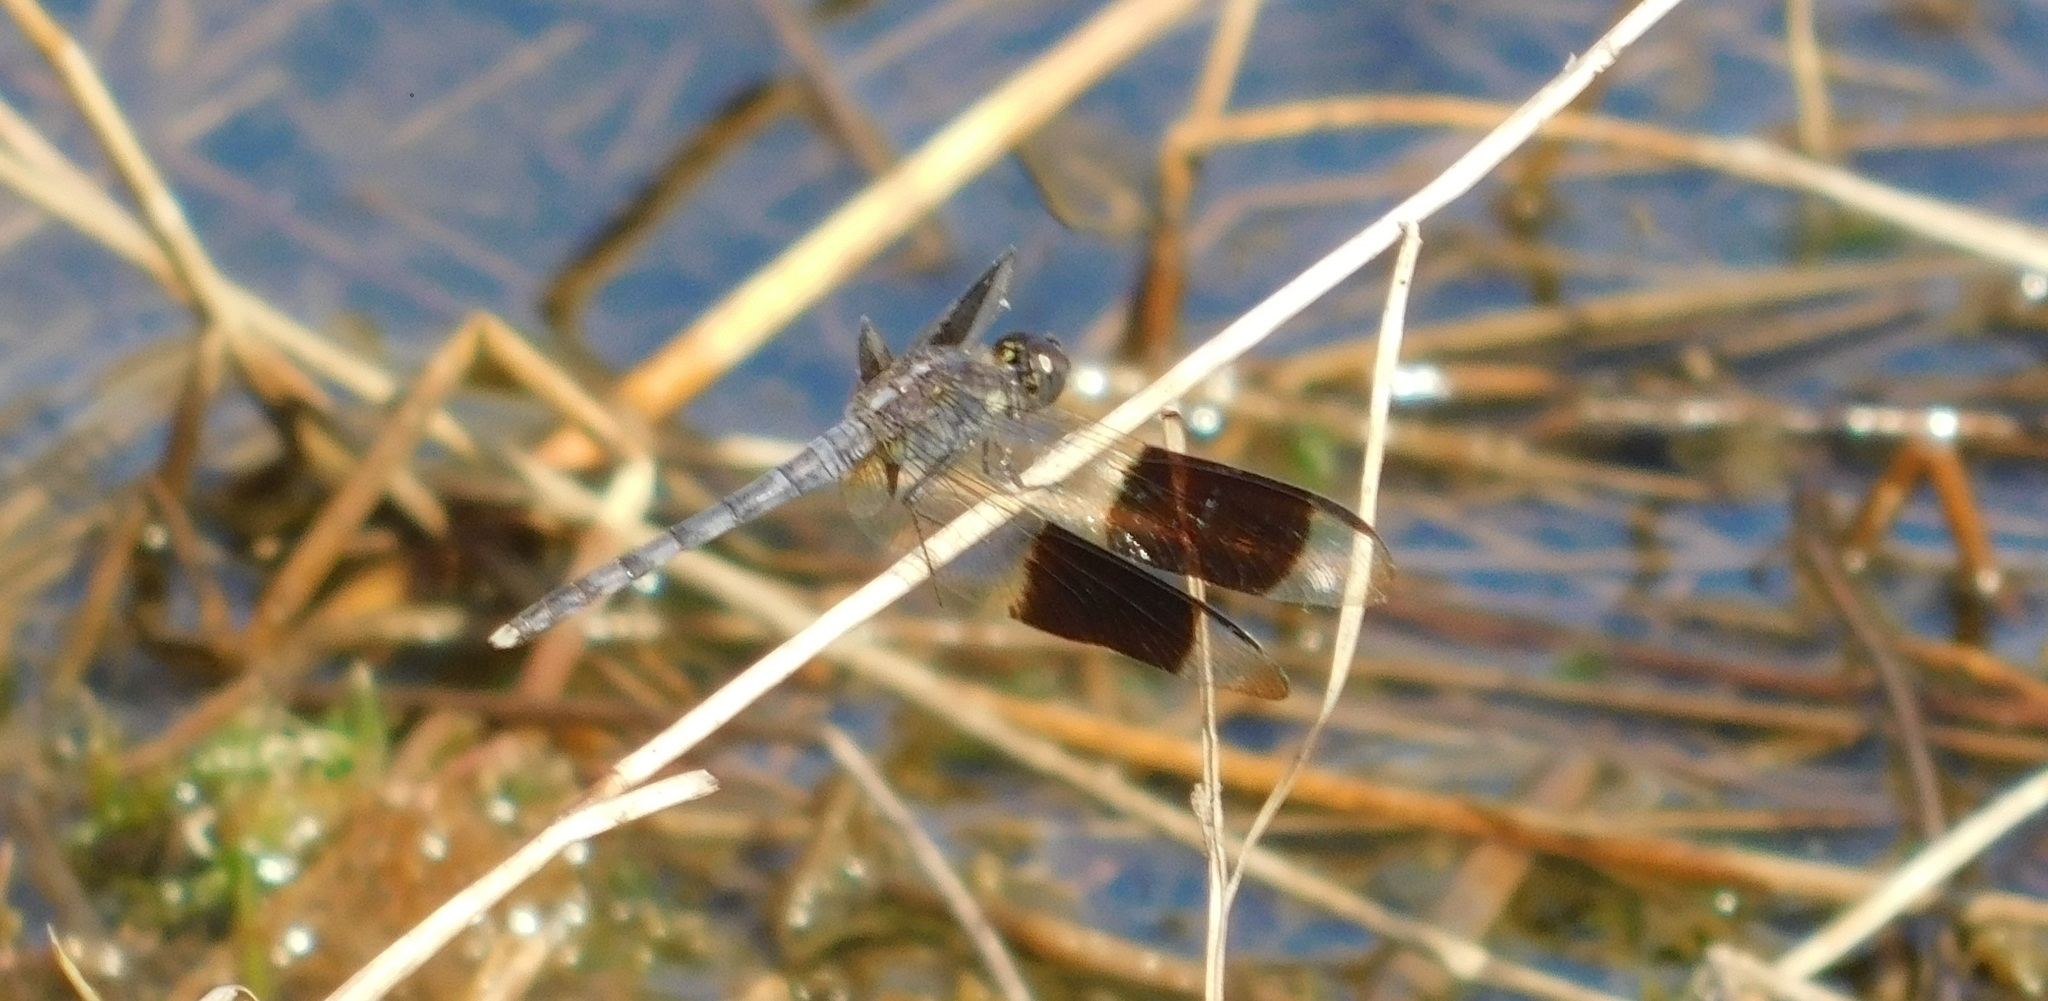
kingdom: Animalia
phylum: Arthropoda
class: Insecta
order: Odonata
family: Libellulidae
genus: Erythrodiplax
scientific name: Erythrodiplax umbrata
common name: Band-winged dragonlet
